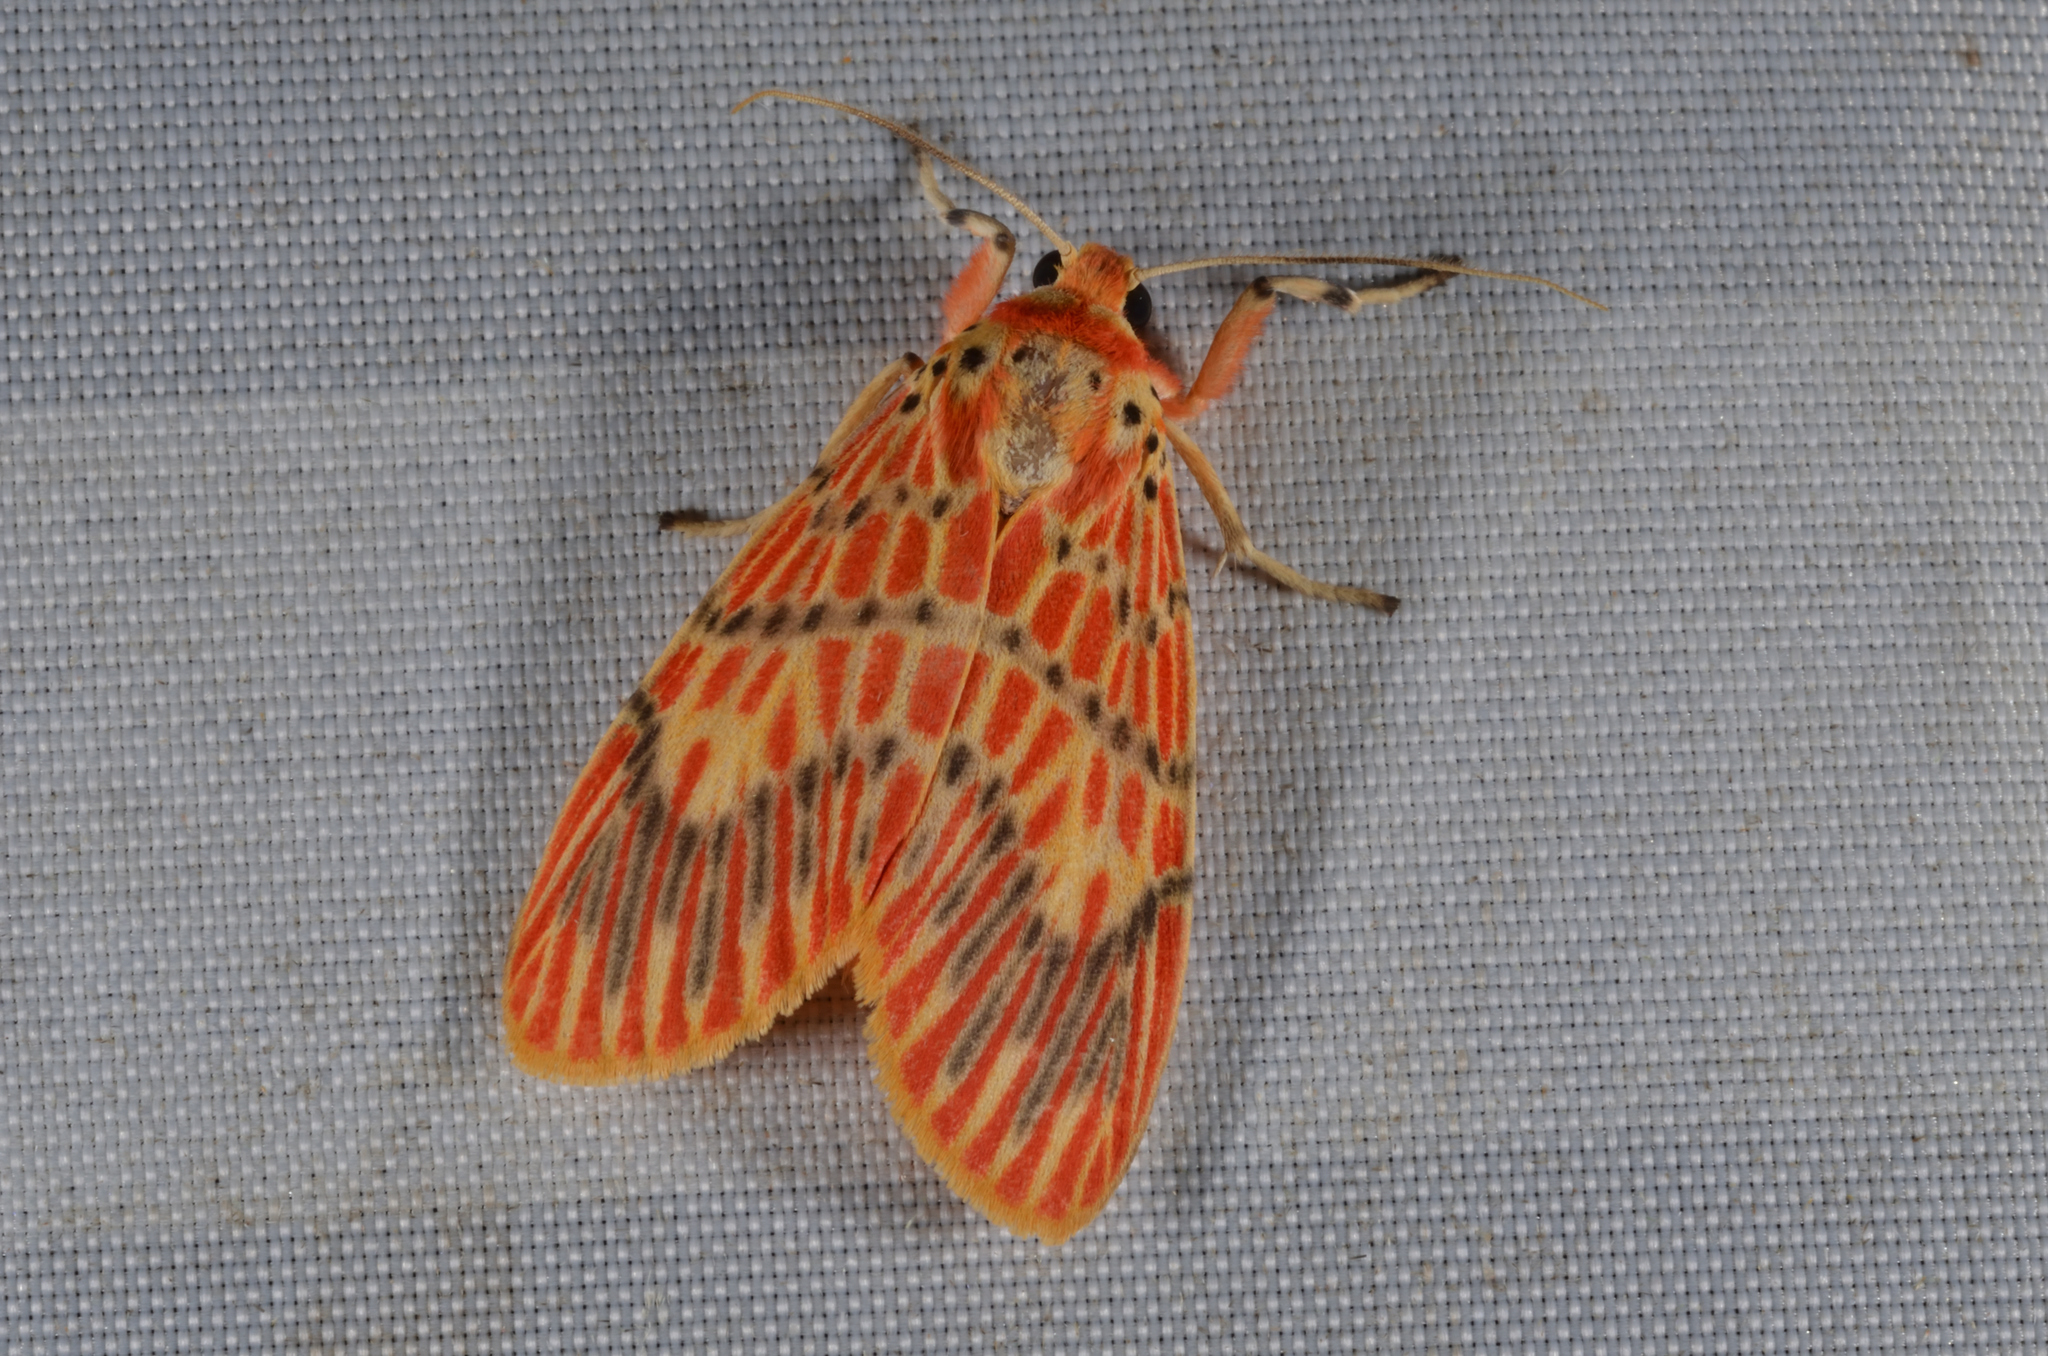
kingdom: Animalia
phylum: Arthropoda
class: Insecta
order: Lepidoptera
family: Erebidae
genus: Barsine
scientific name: Barsine orientalis
